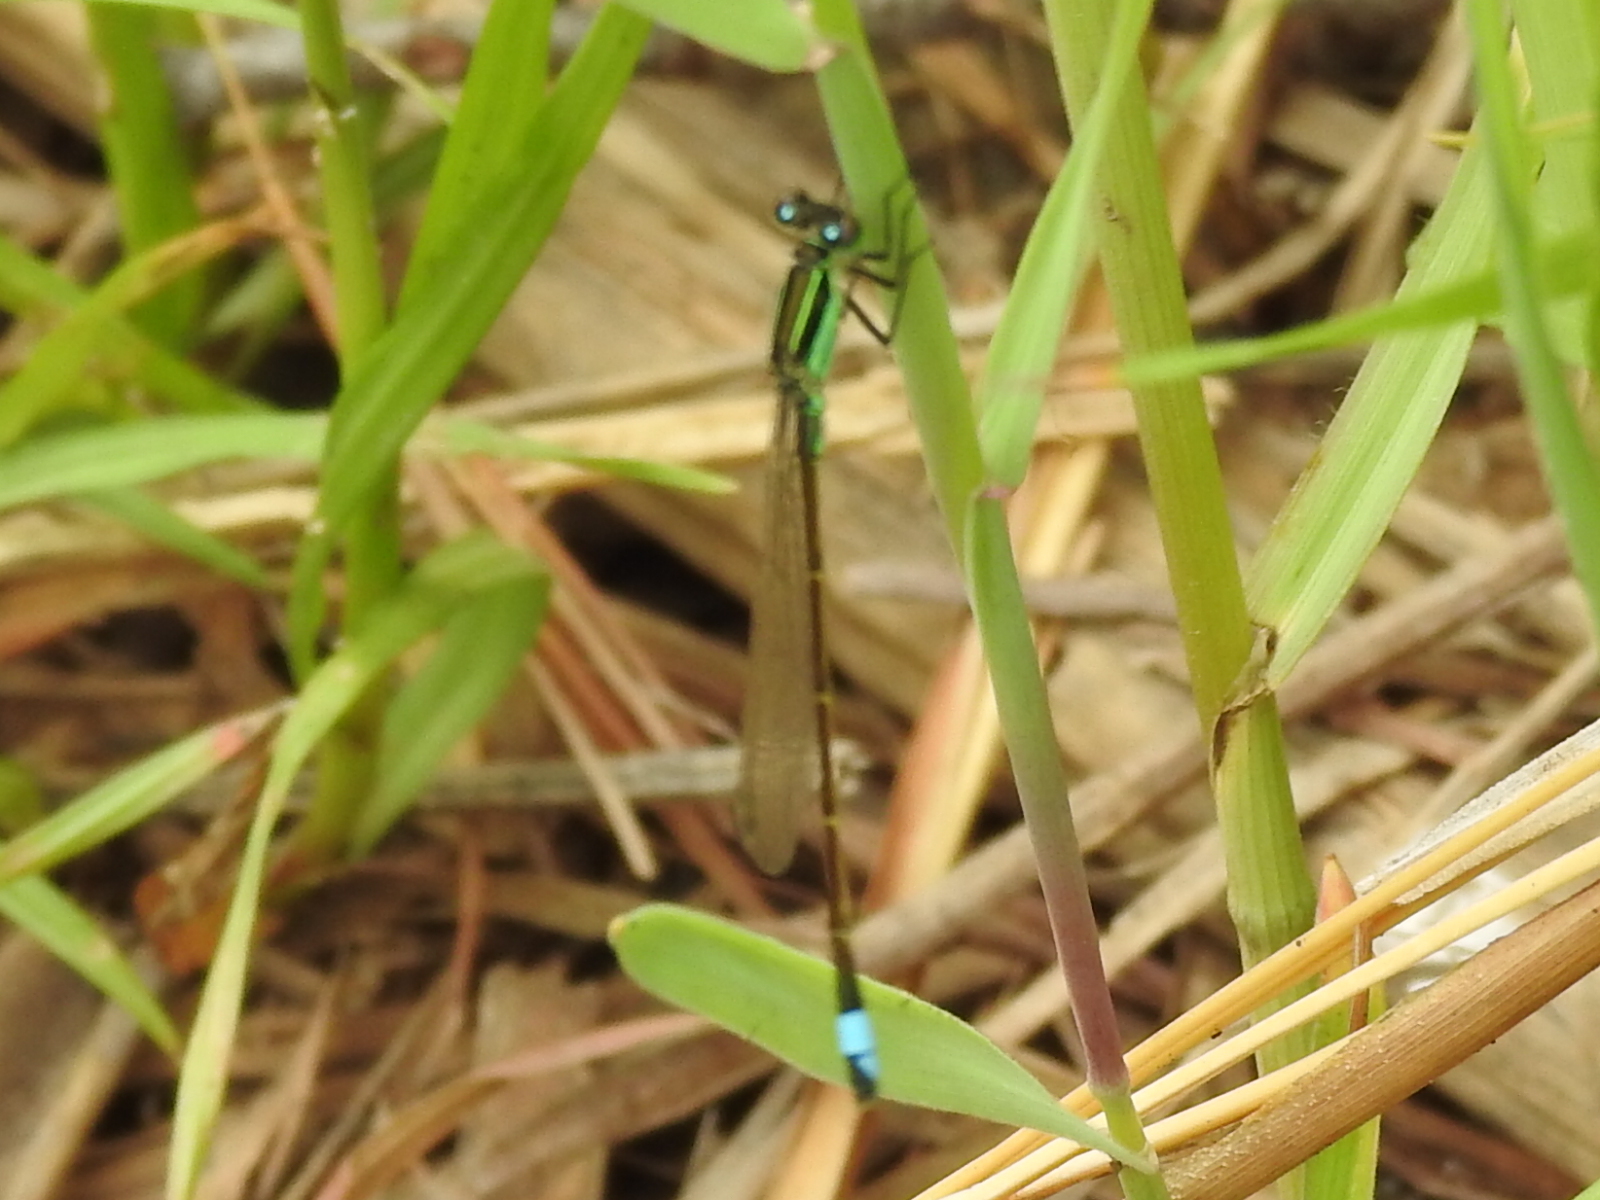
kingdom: Animalia
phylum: Arthropoda
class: Insecta
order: Odonata
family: Coenagrionidae
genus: Ischnura
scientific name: Ischnura ramburii
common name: Rambur's forktail
